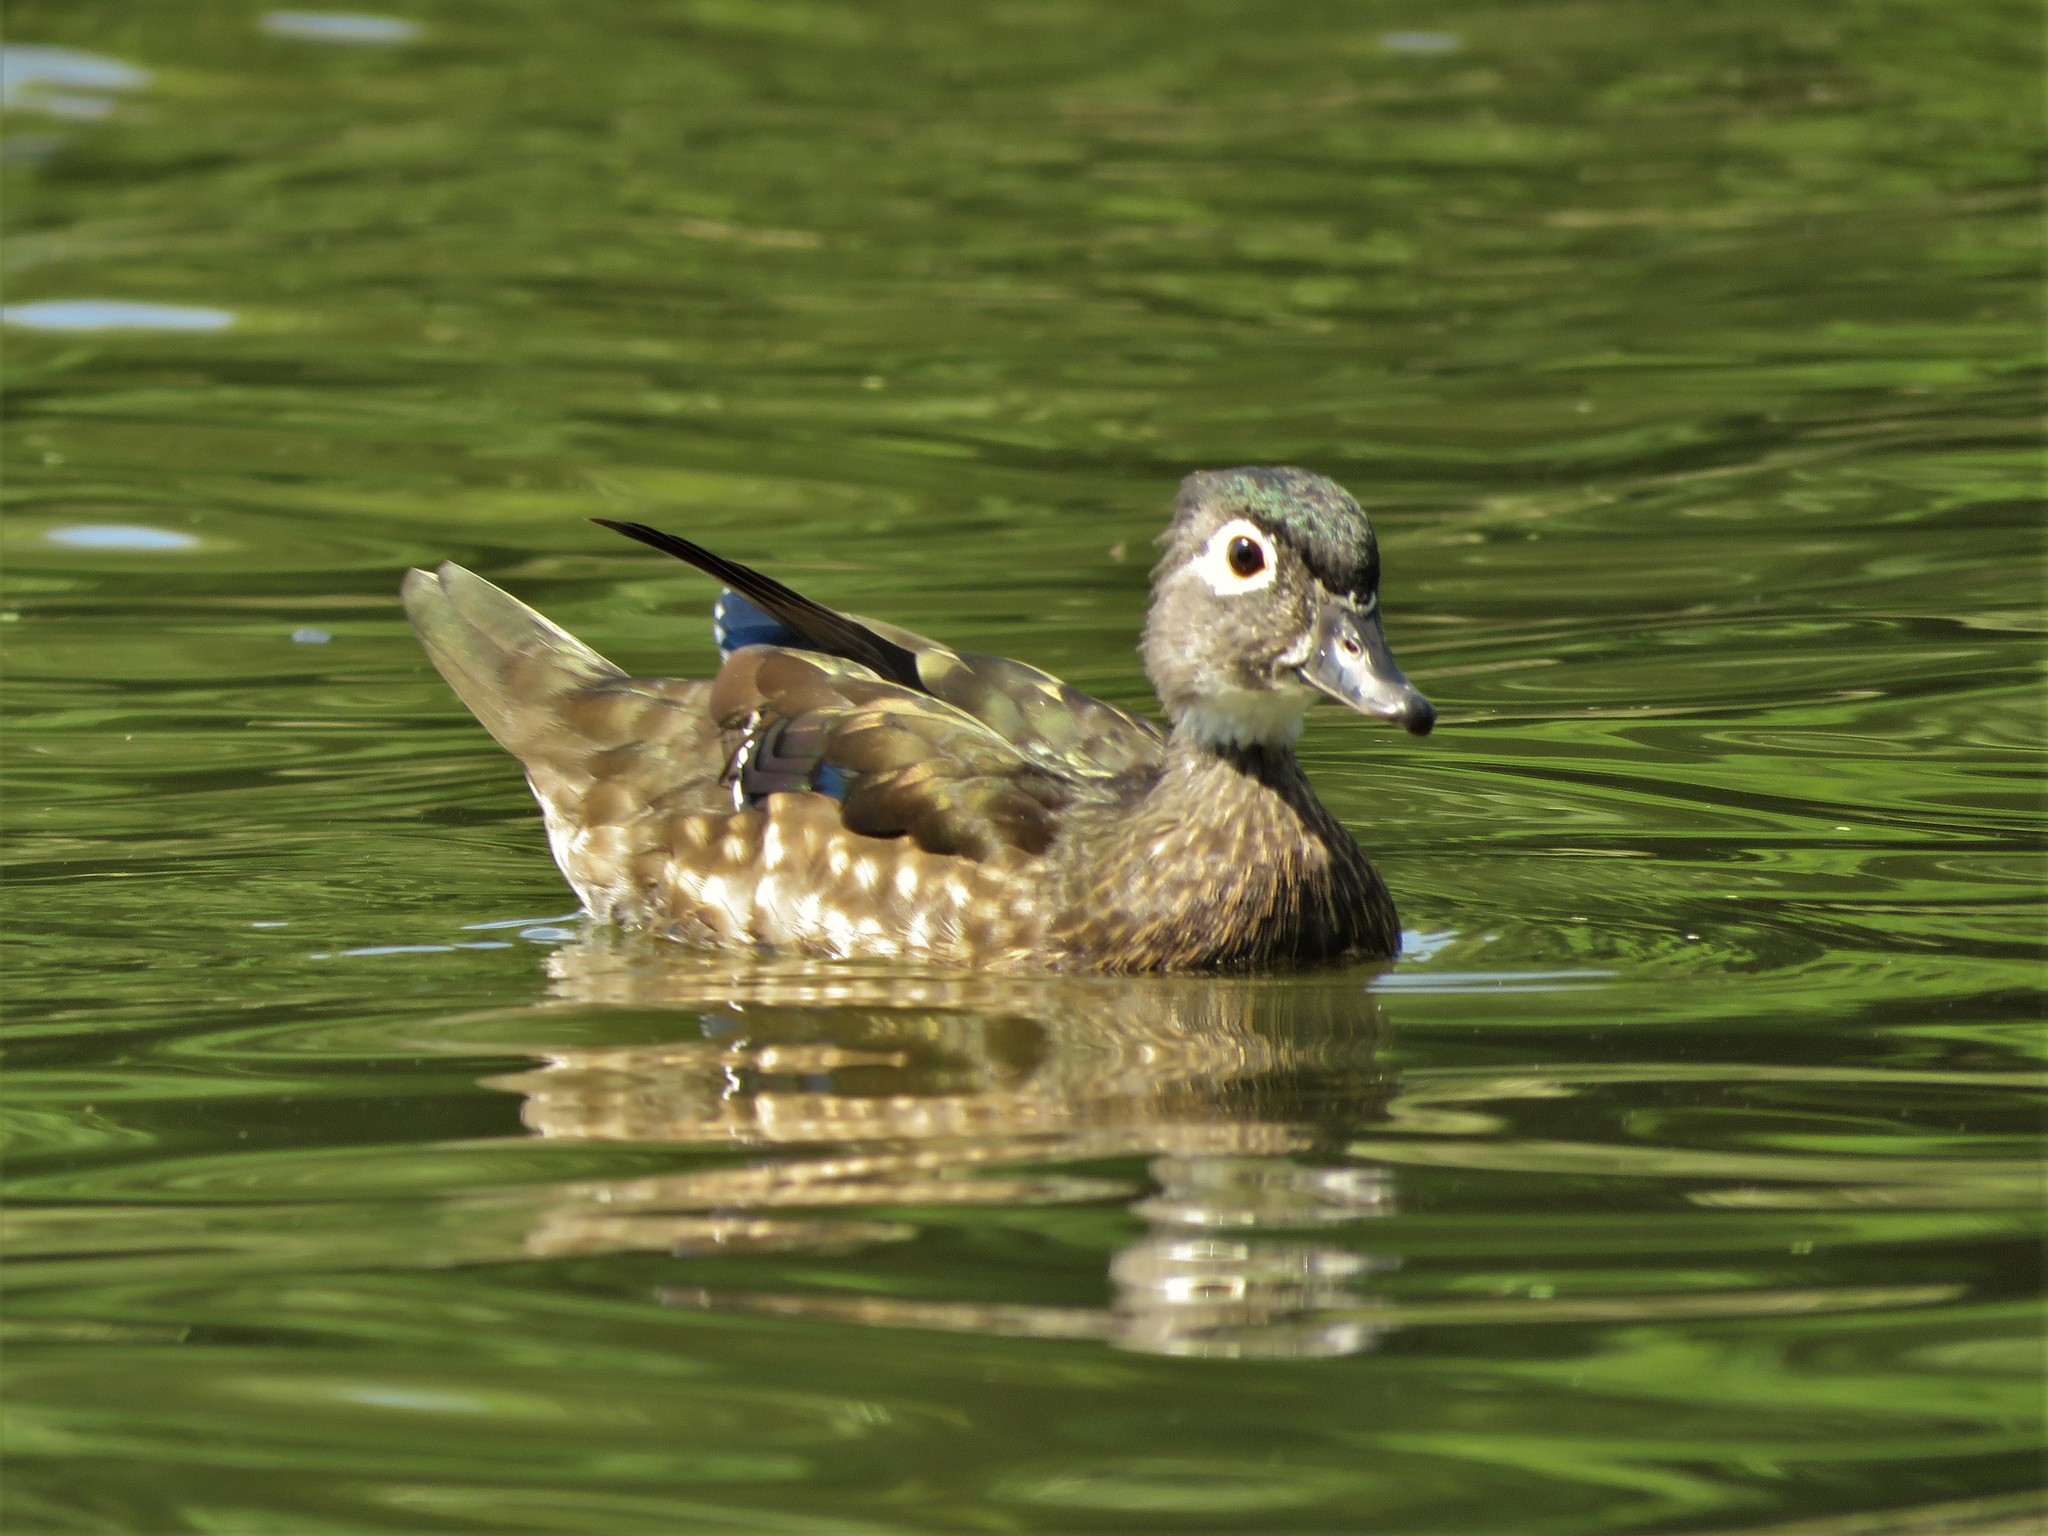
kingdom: Animalia
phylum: Chordata
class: Aves
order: Anseriformes
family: Anatidae
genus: Aix
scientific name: Aix sponsa
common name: Wood duck
